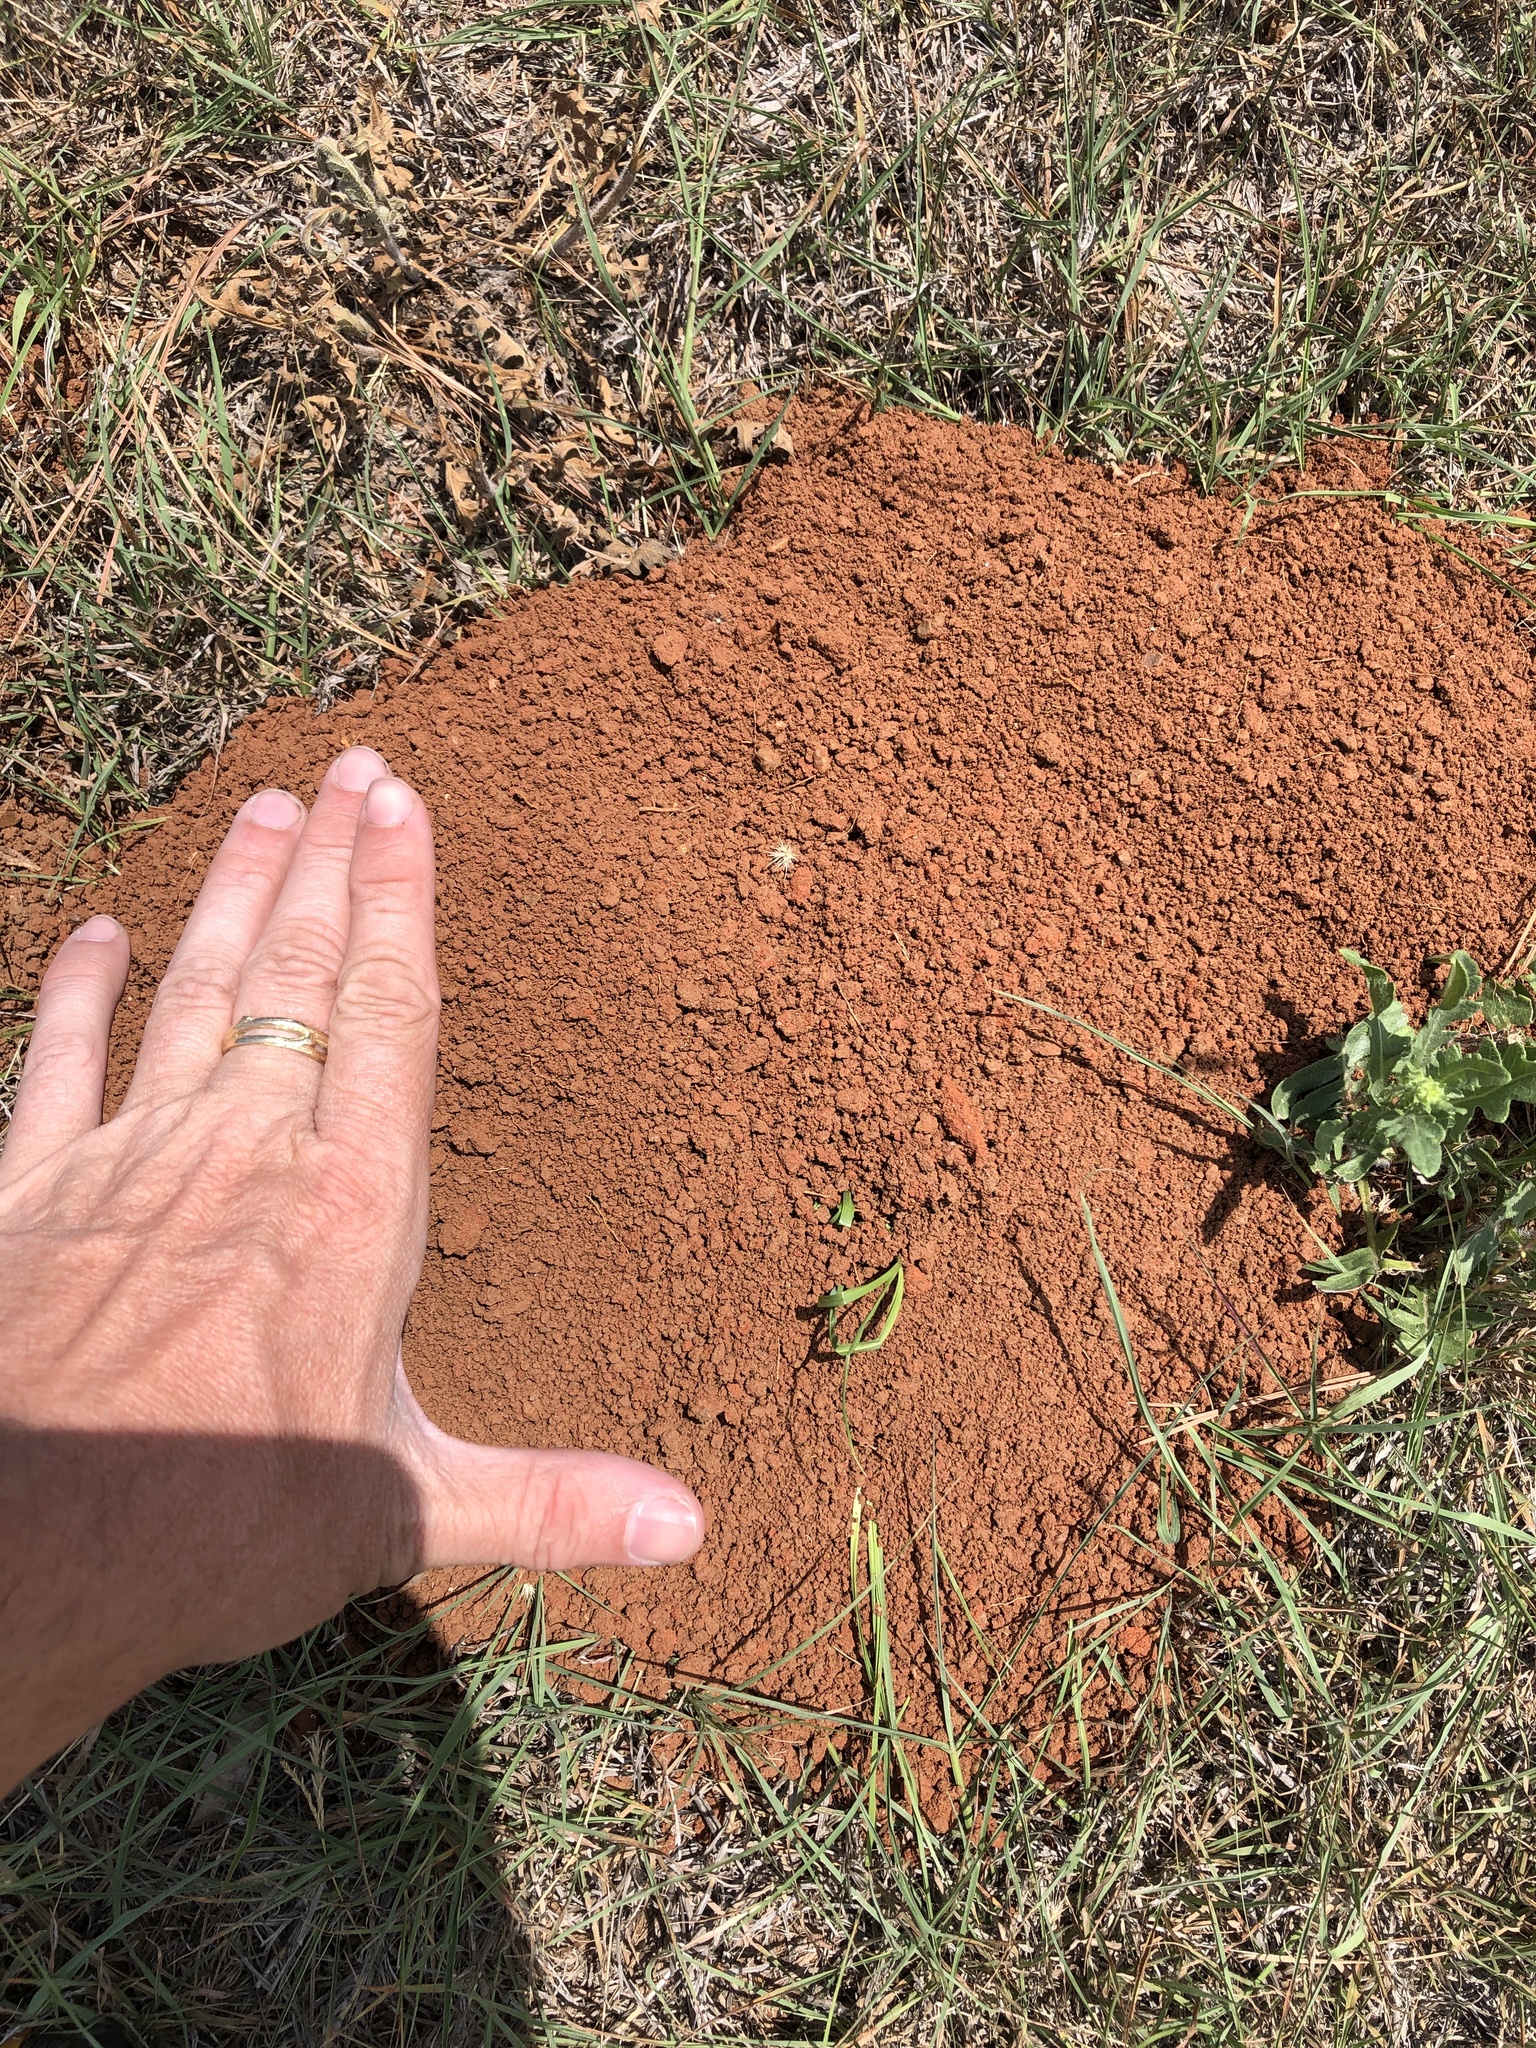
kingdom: Animalia
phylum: Chordata
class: Mammalia
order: Rodentia
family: Geomyidae
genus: Geomys
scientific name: Geomys bursarius
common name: Plains pocket gopher
